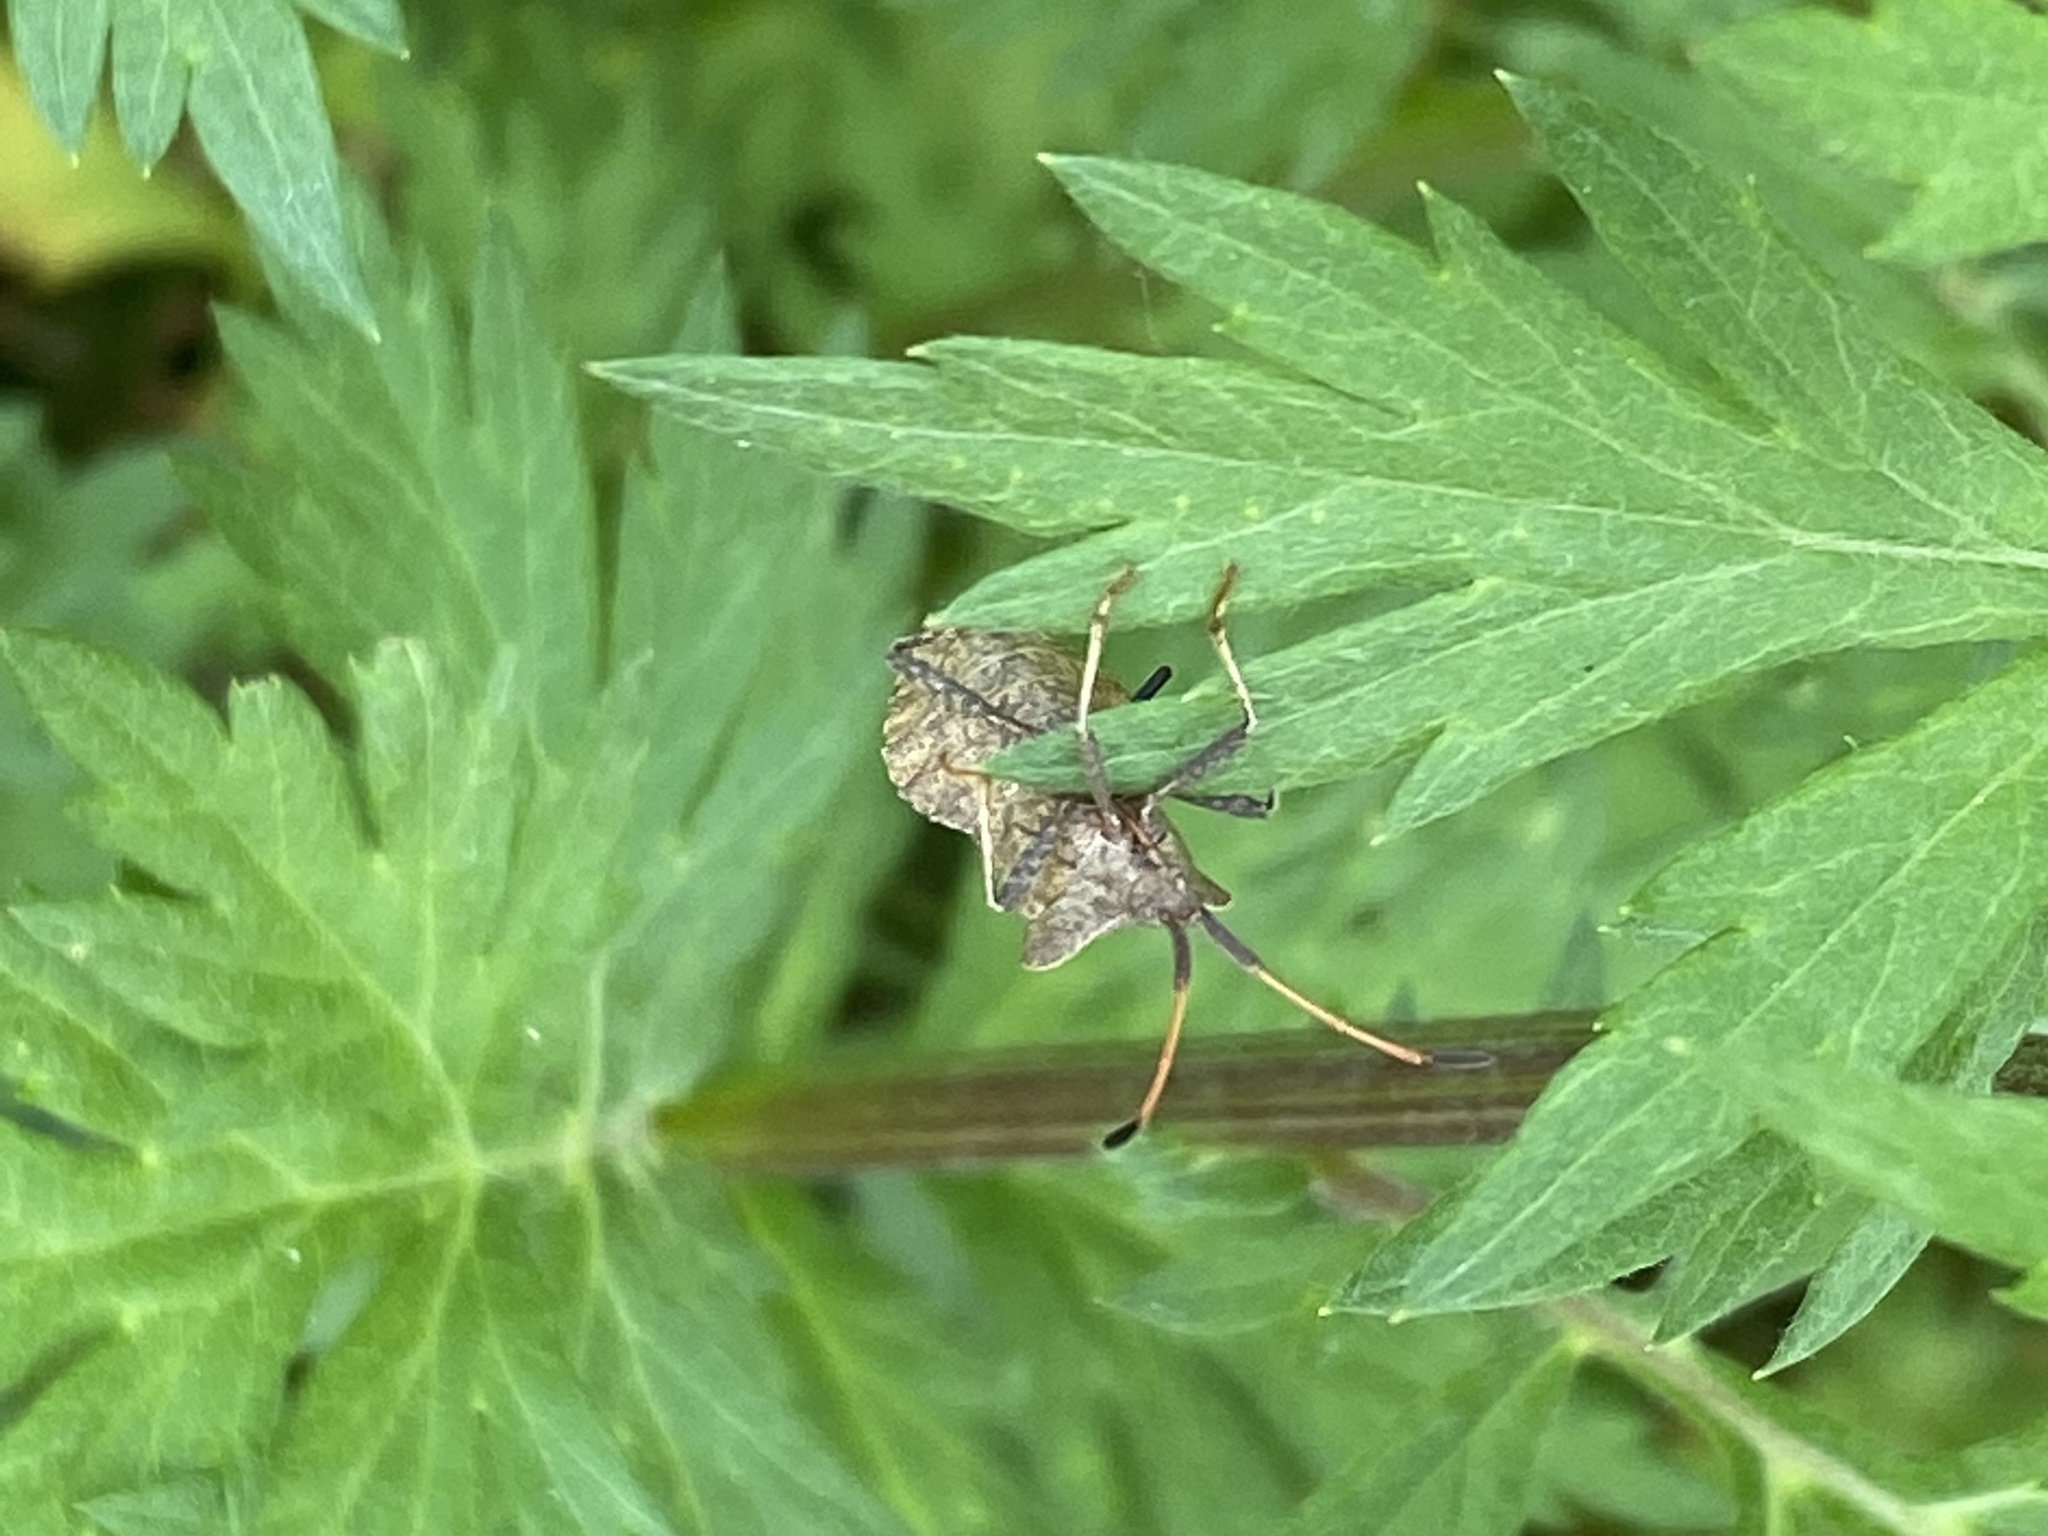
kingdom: Animalia
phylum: Arthropoda
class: Insecta
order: Hemiptera
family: Coreidae
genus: Coreus
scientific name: Coreus marginatus
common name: Dock bug
